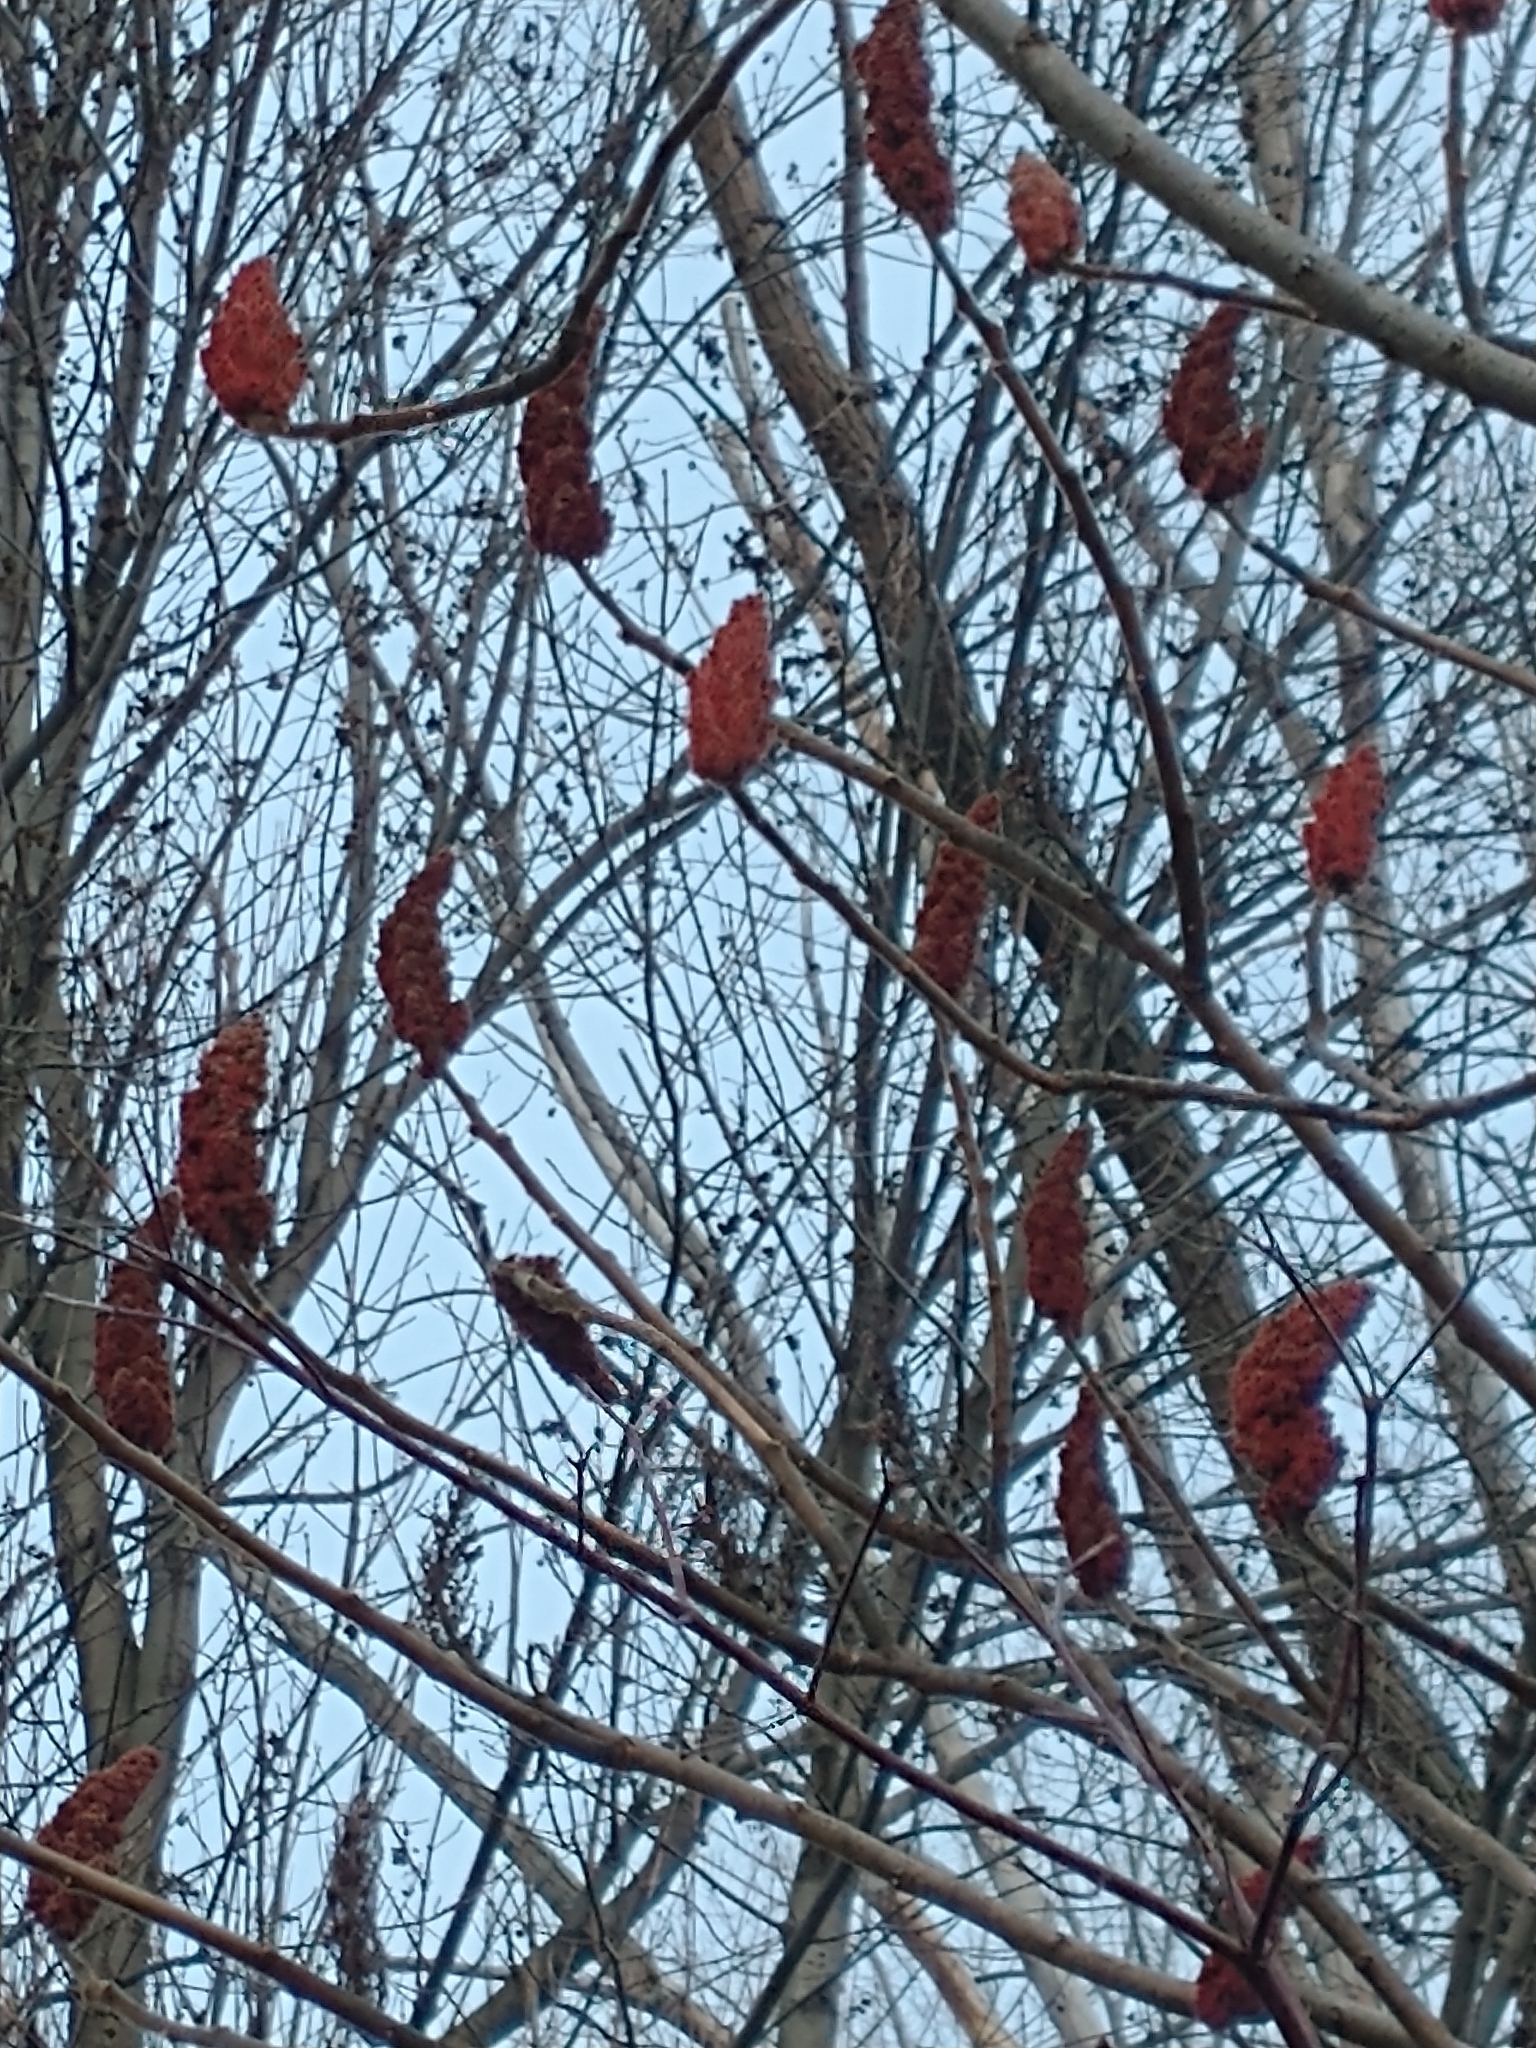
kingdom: Plantae
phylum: Tracheophyta
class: Magnoliopsida
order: Sapindales
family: Anacardiaceae
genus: Rhus
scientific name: Rhus typhina
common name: Staghorn sumac
